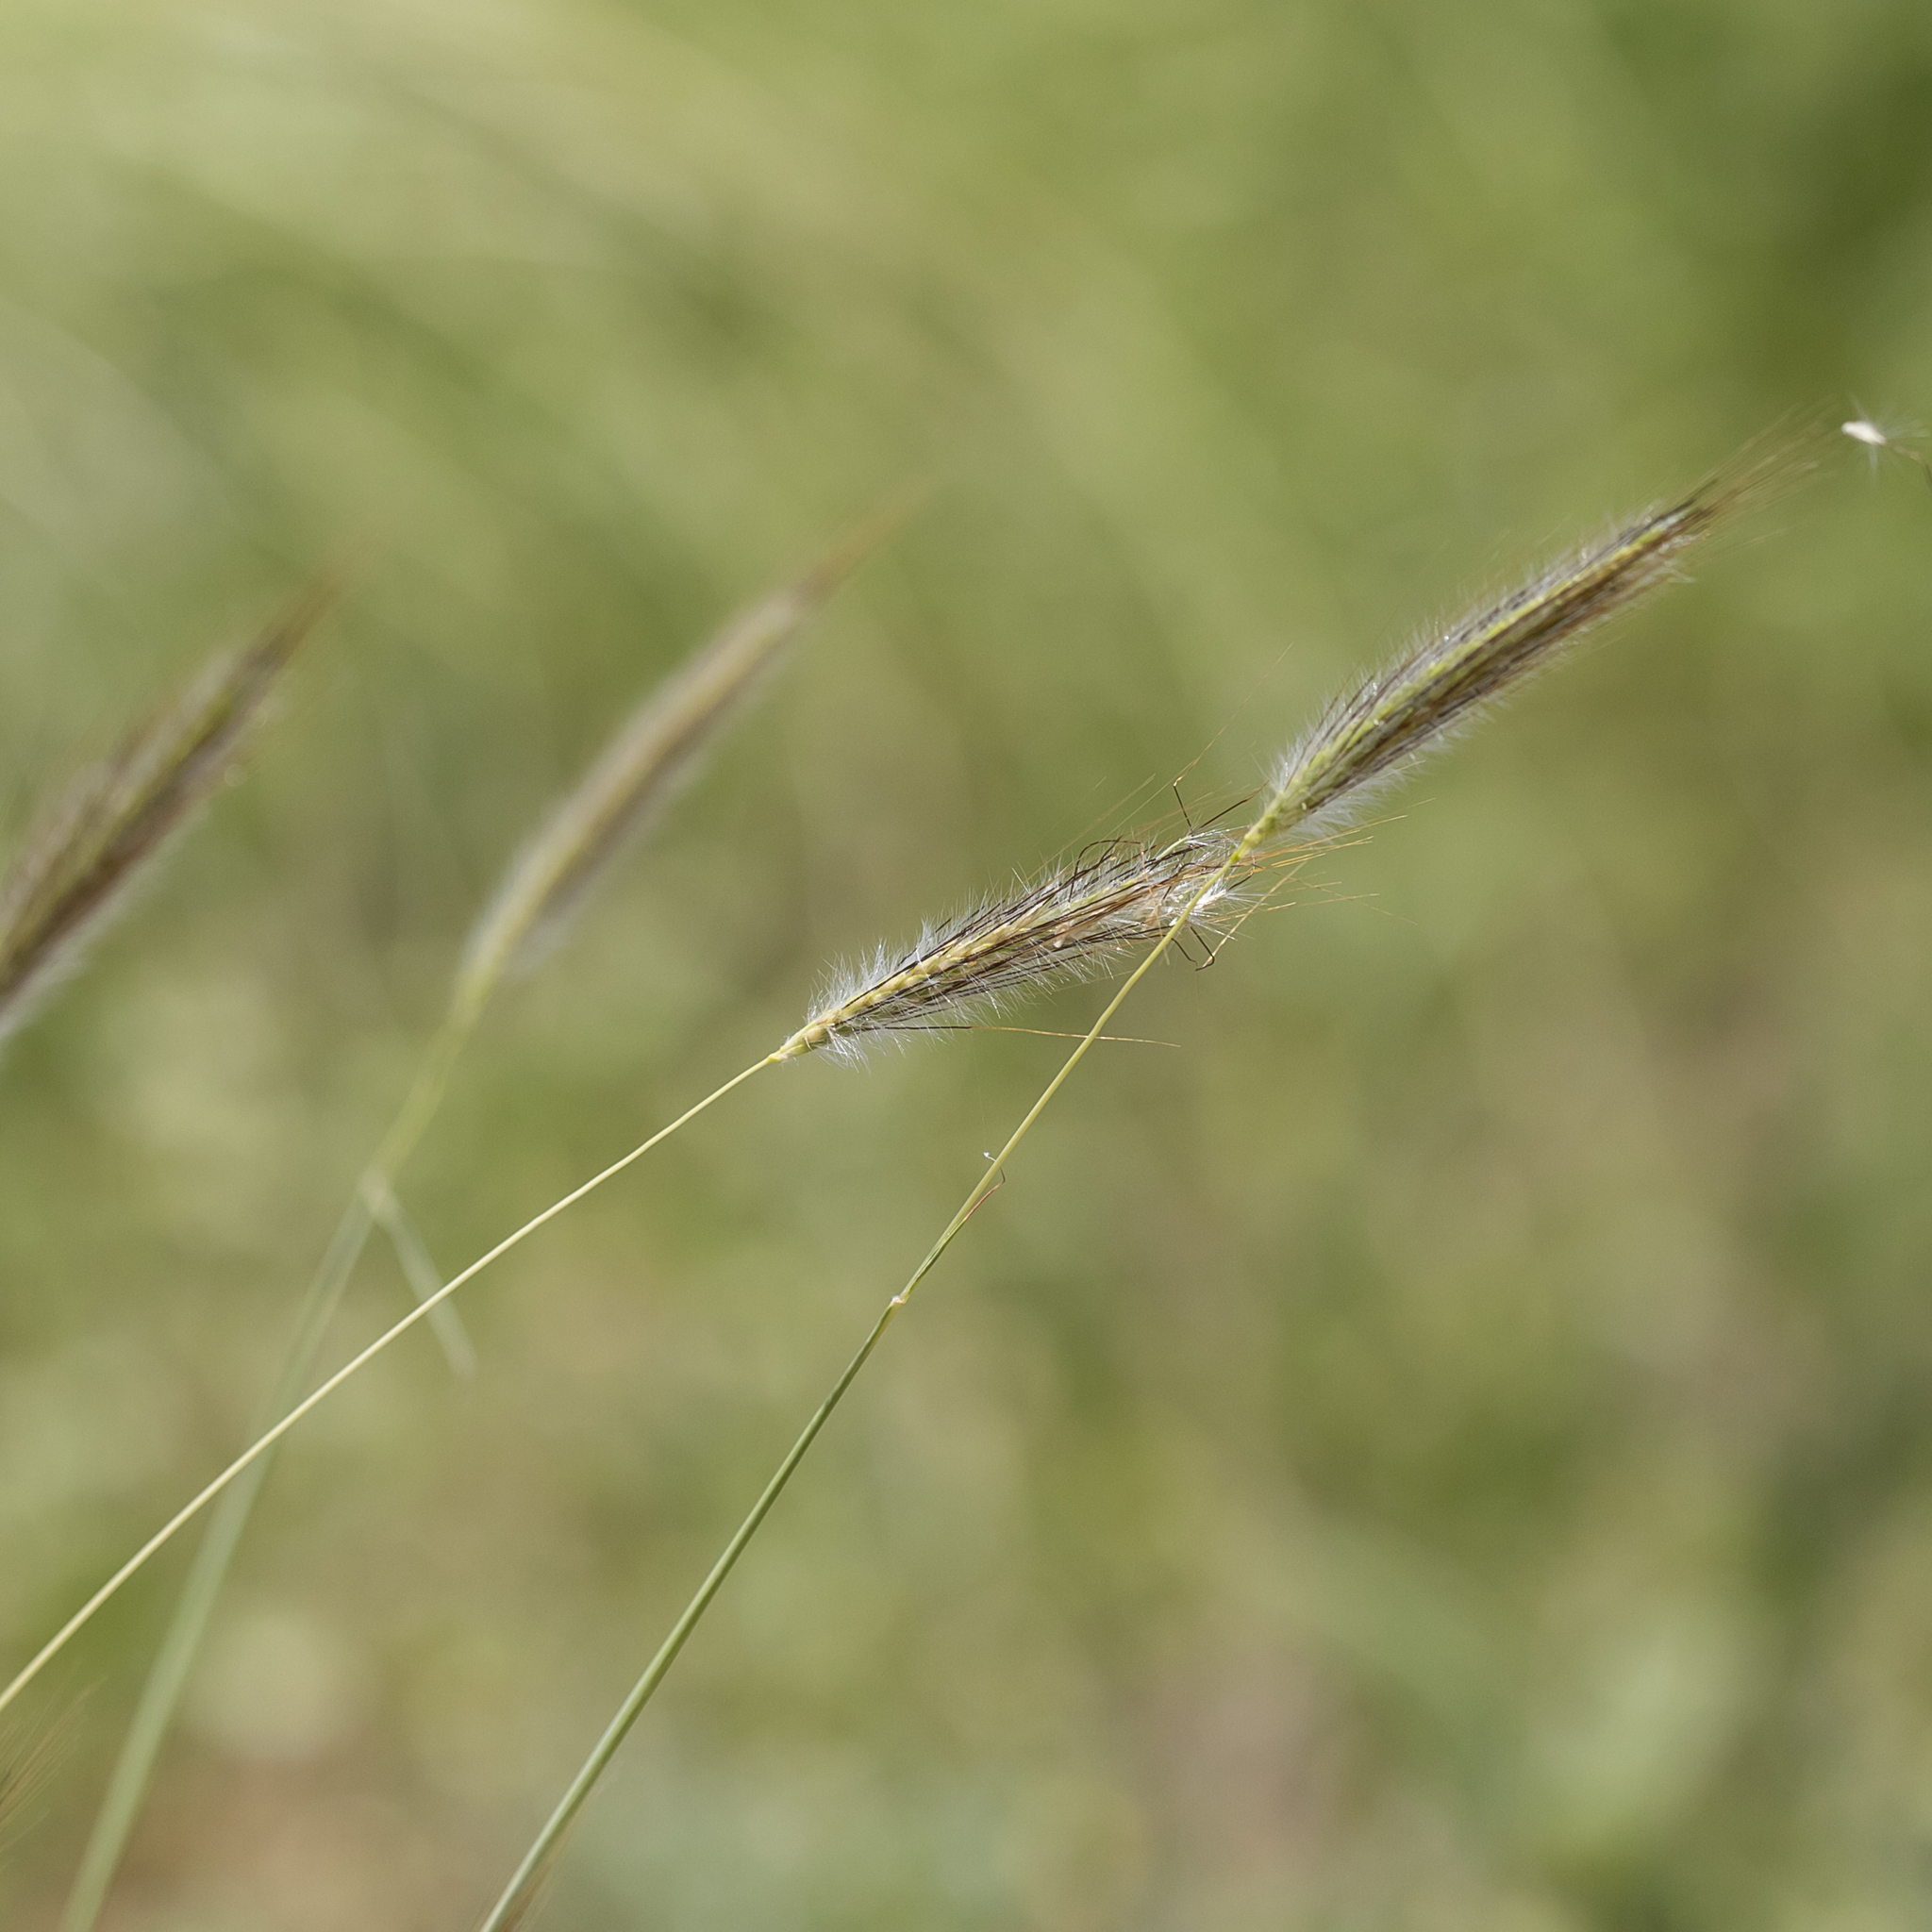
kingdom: Plantae
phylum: Tracheophyta
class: Liliopsida
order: Poales
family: Poaceae
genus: Dichanthium
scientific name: Dichanthium sericeum
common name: Silky bluestem
